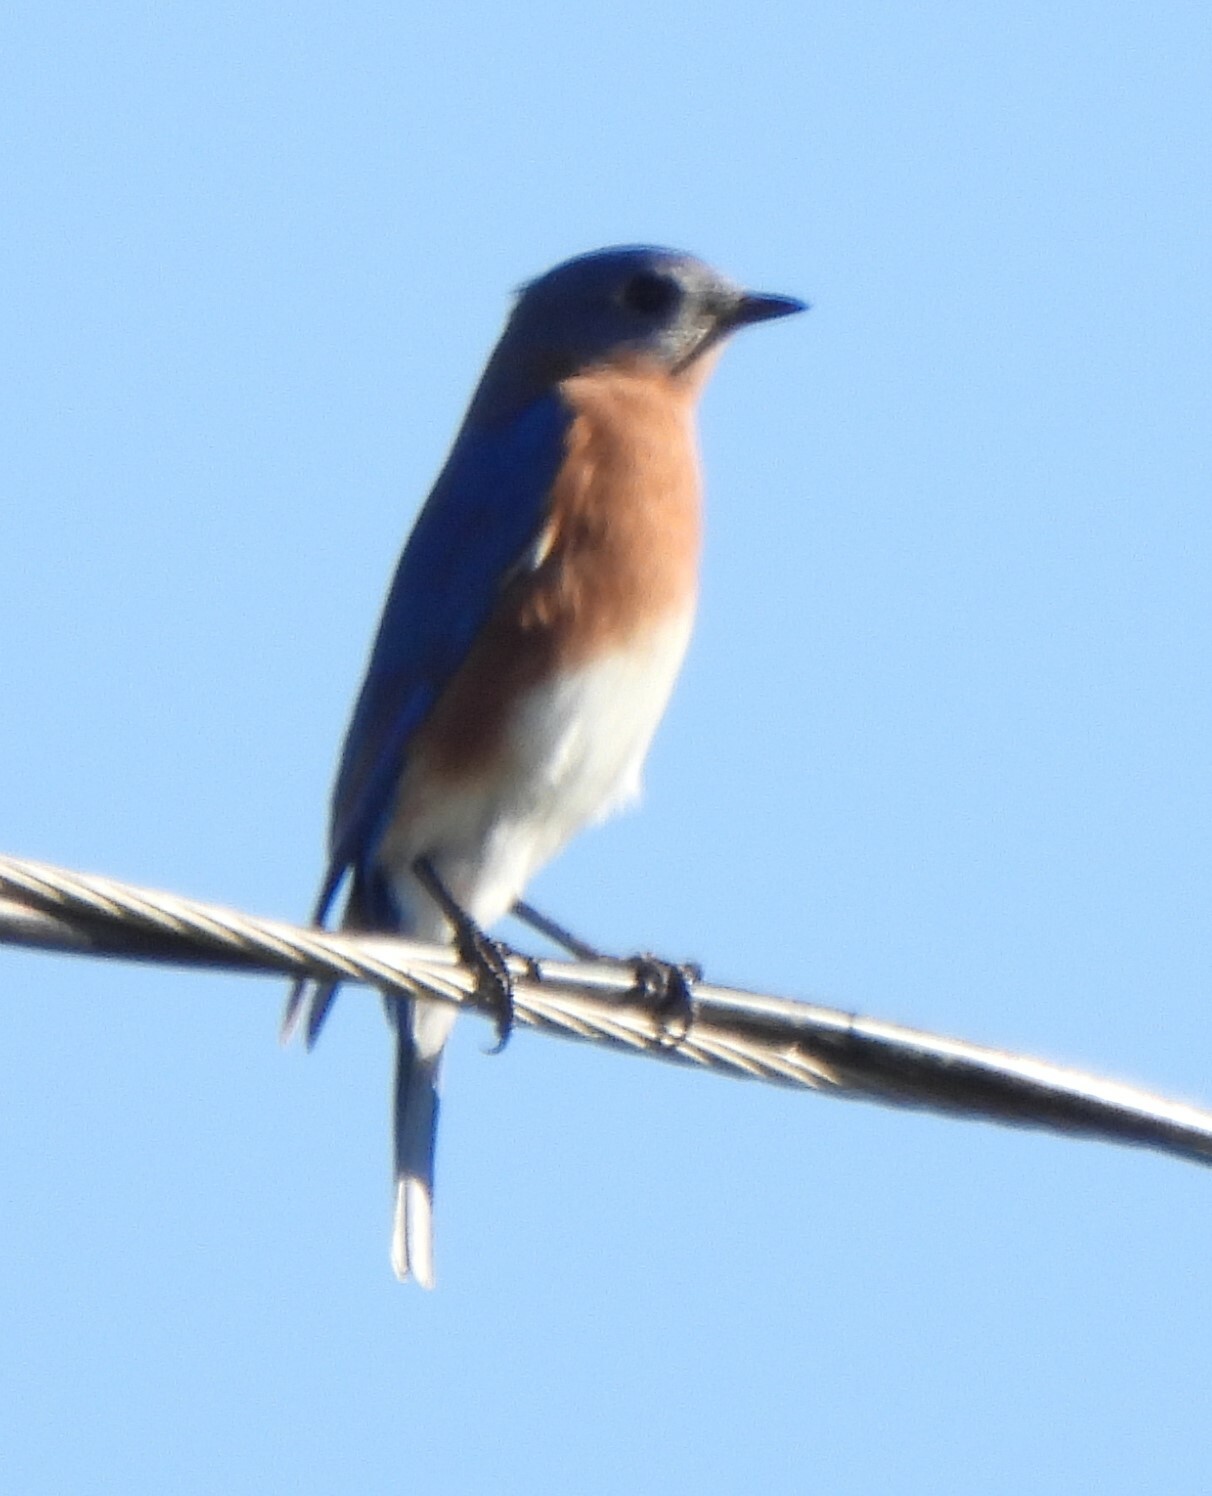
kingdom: Animalia
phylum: Chordata
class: Aves
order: Passeriformes
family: Turdidae
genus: Sialia
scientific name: Sialia sialis
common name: Eastern bluebird
